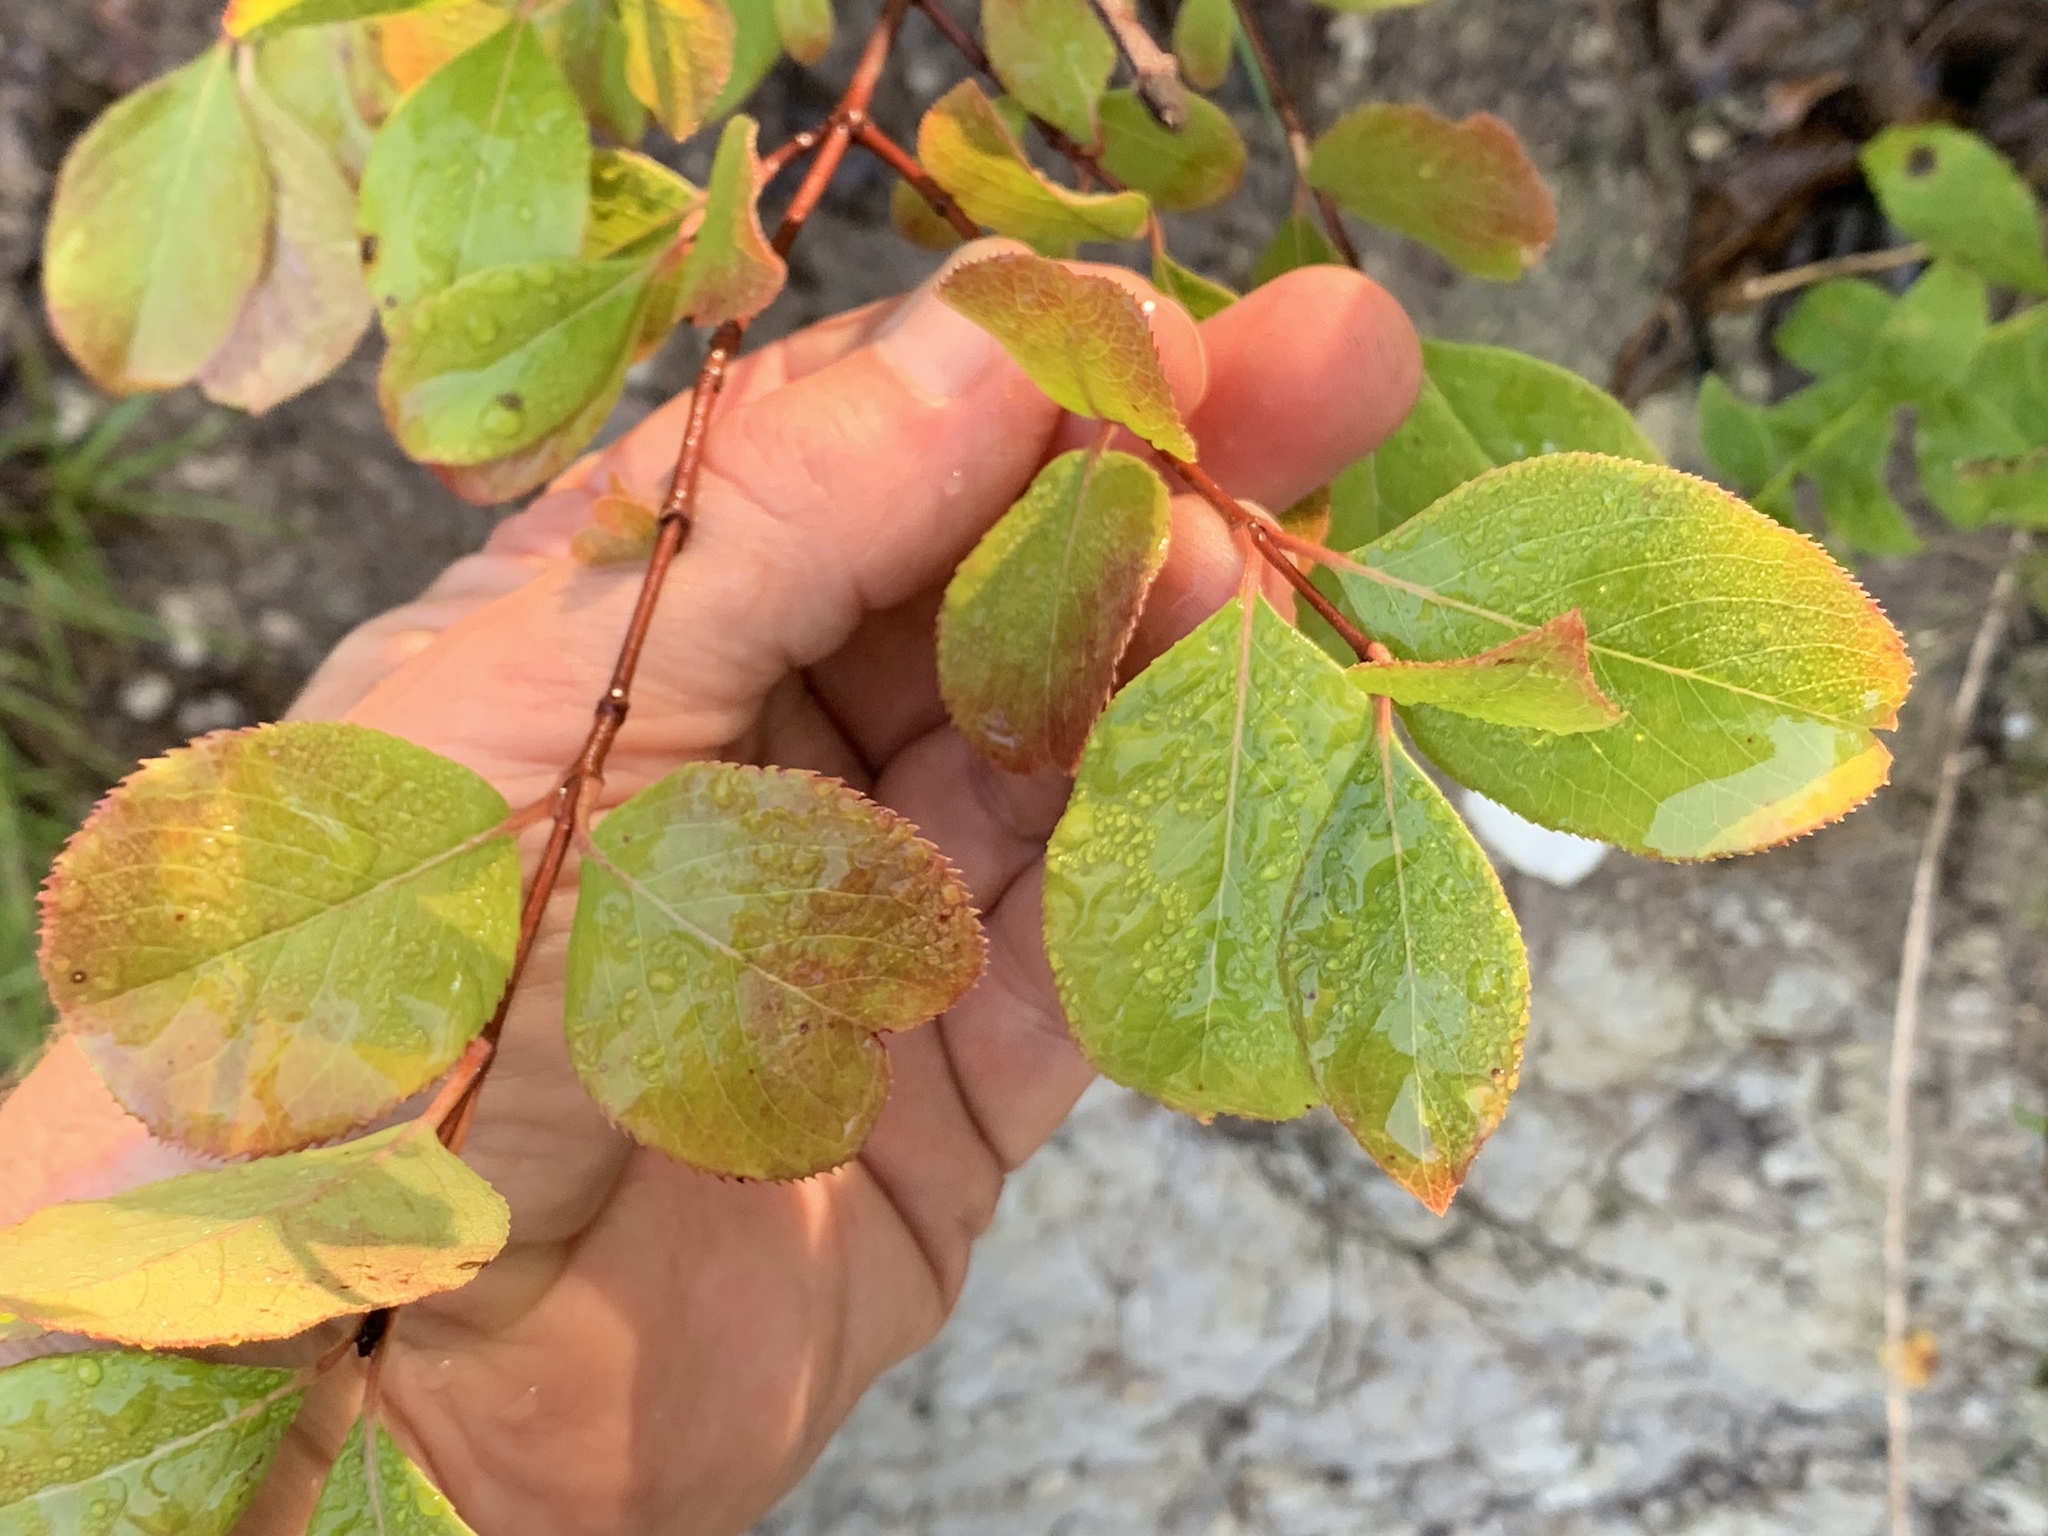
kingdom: Plantae
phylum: Tracheophyta
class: Magnoliopsida
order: Dipsacales
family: Viburnaceae
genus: Viburnum
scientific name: Viburnum rufidulum
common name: Blue haw
